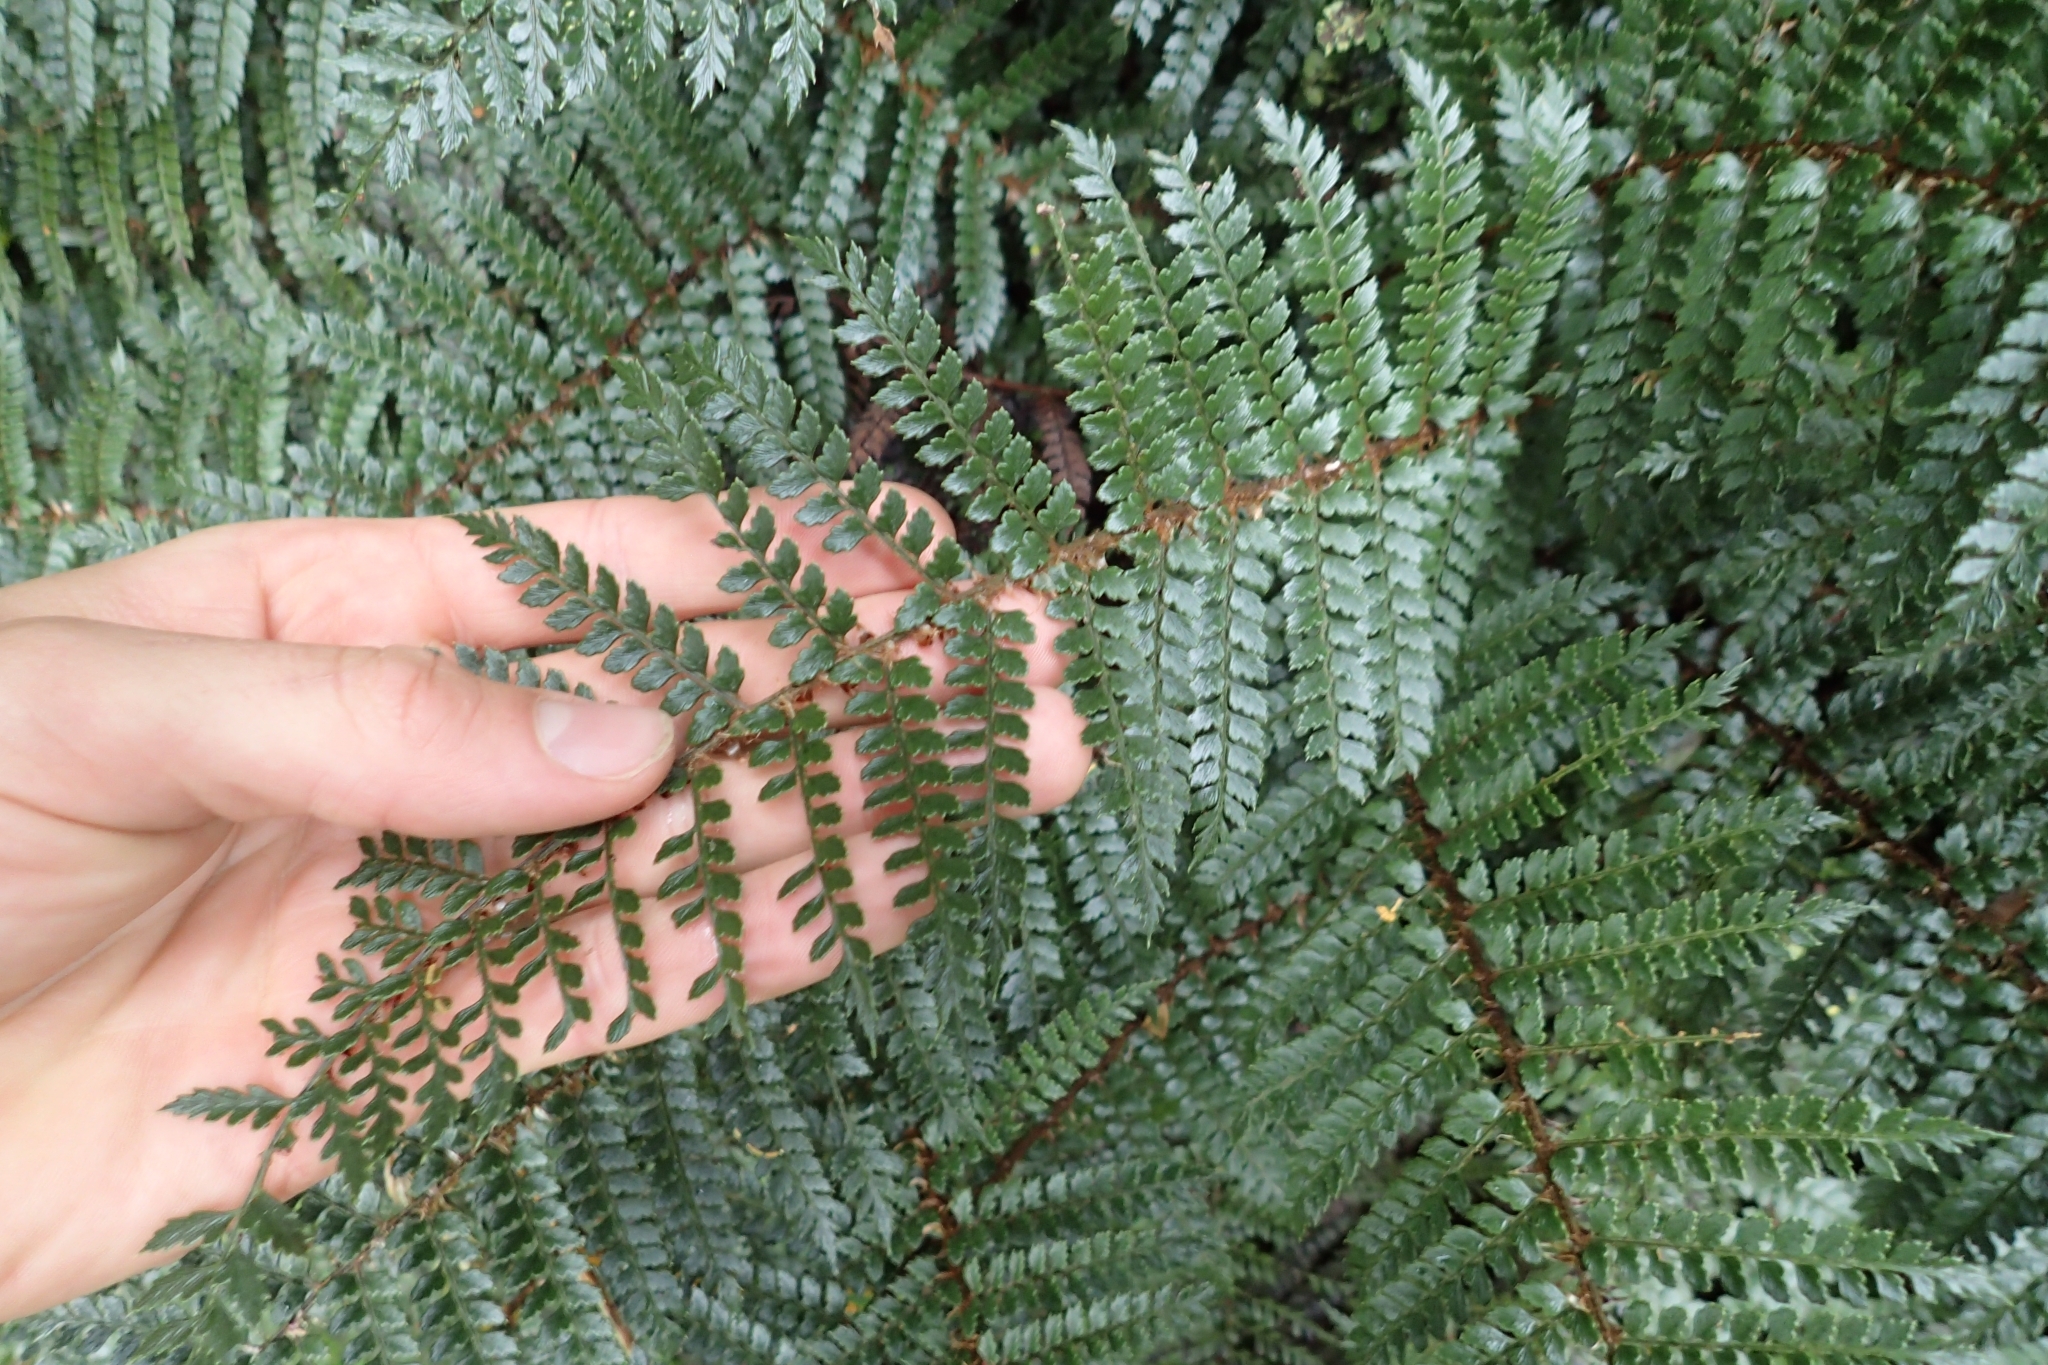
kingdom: Plantae
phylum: Tracheophyta
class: Polypodiopsida
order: Polypodiales
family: Dryopteridaceae
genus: Polystichum
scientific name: Polystichum vestitum
